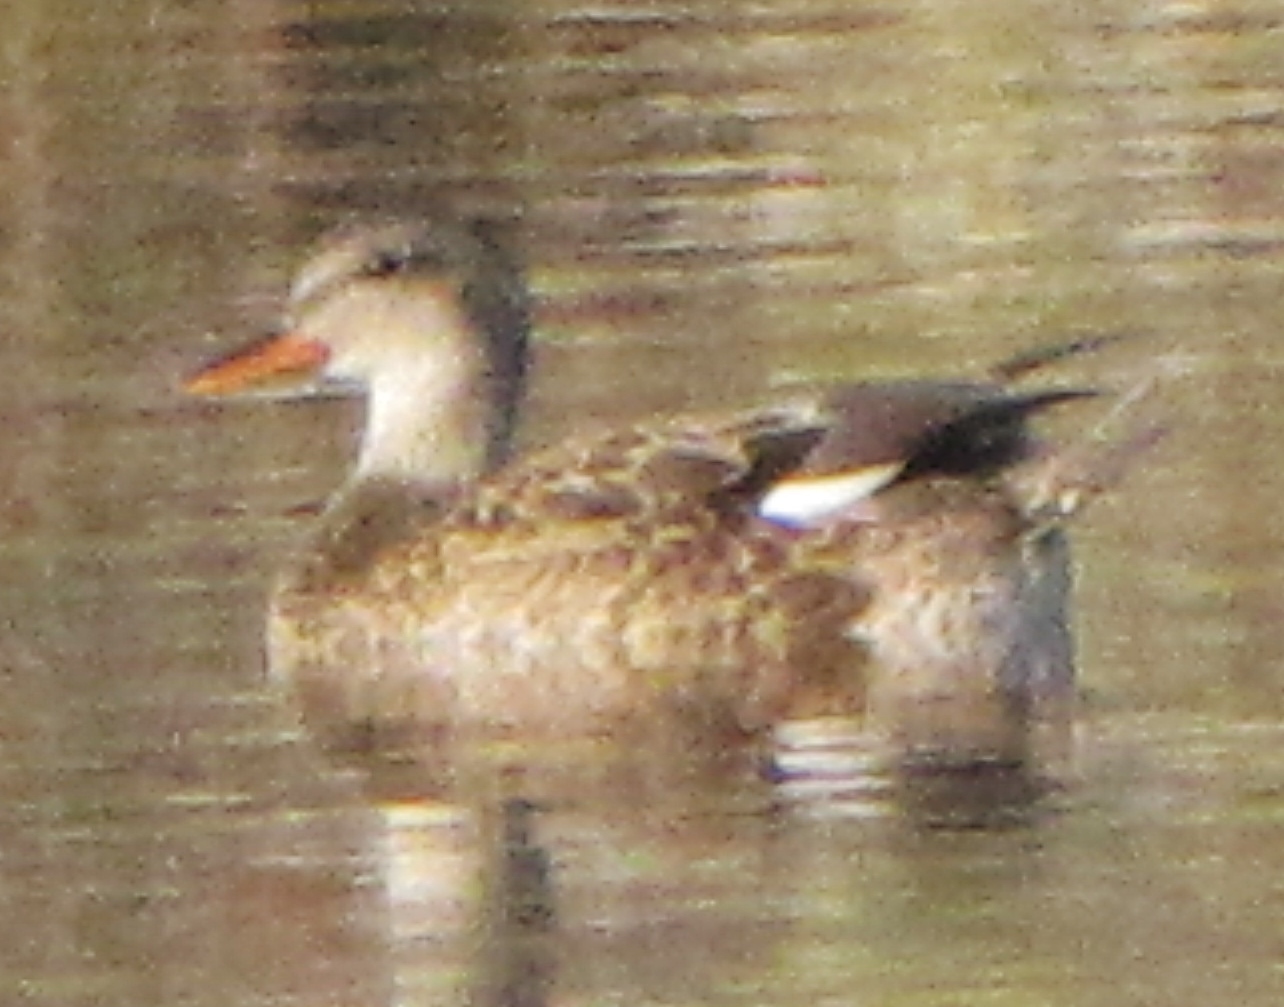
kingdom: Animalia
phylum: Chordata
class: Aves
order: Anseriformes
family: Anatidae
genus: Mareca
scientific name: Mareca strepera
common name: Gadwall
